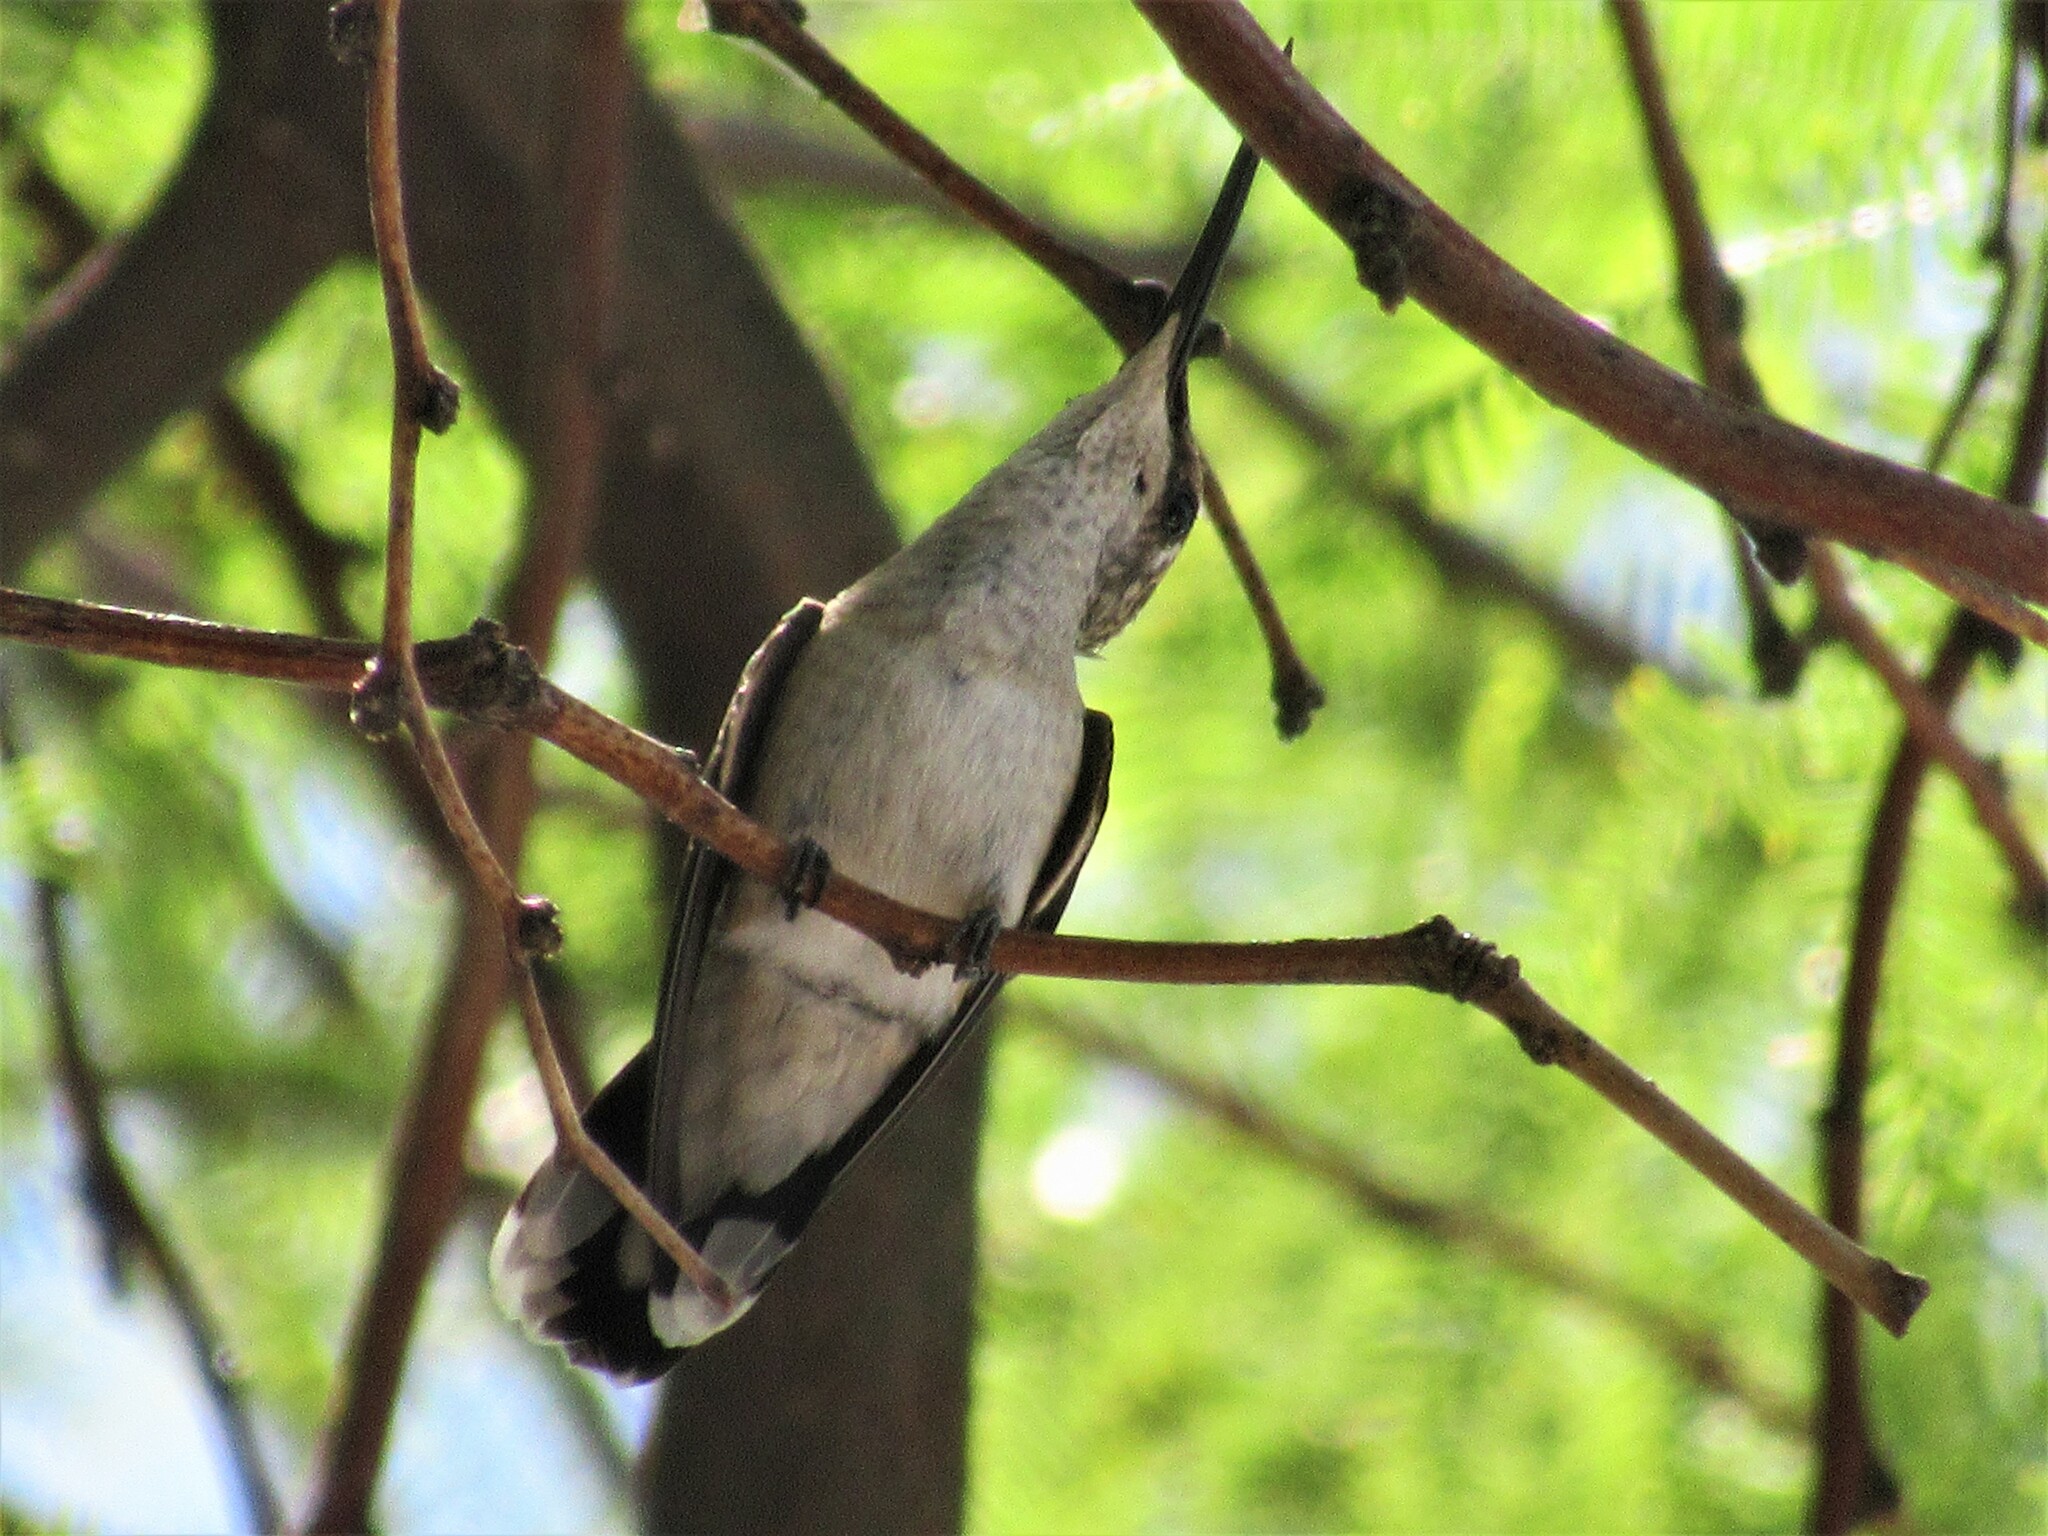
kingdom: Animalia
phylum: Chordata
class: Aves
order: Apodiformes
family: Trochilidae
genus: Archilochus
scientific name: Archilochus alexandri
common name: Black-chinned hummingbird
